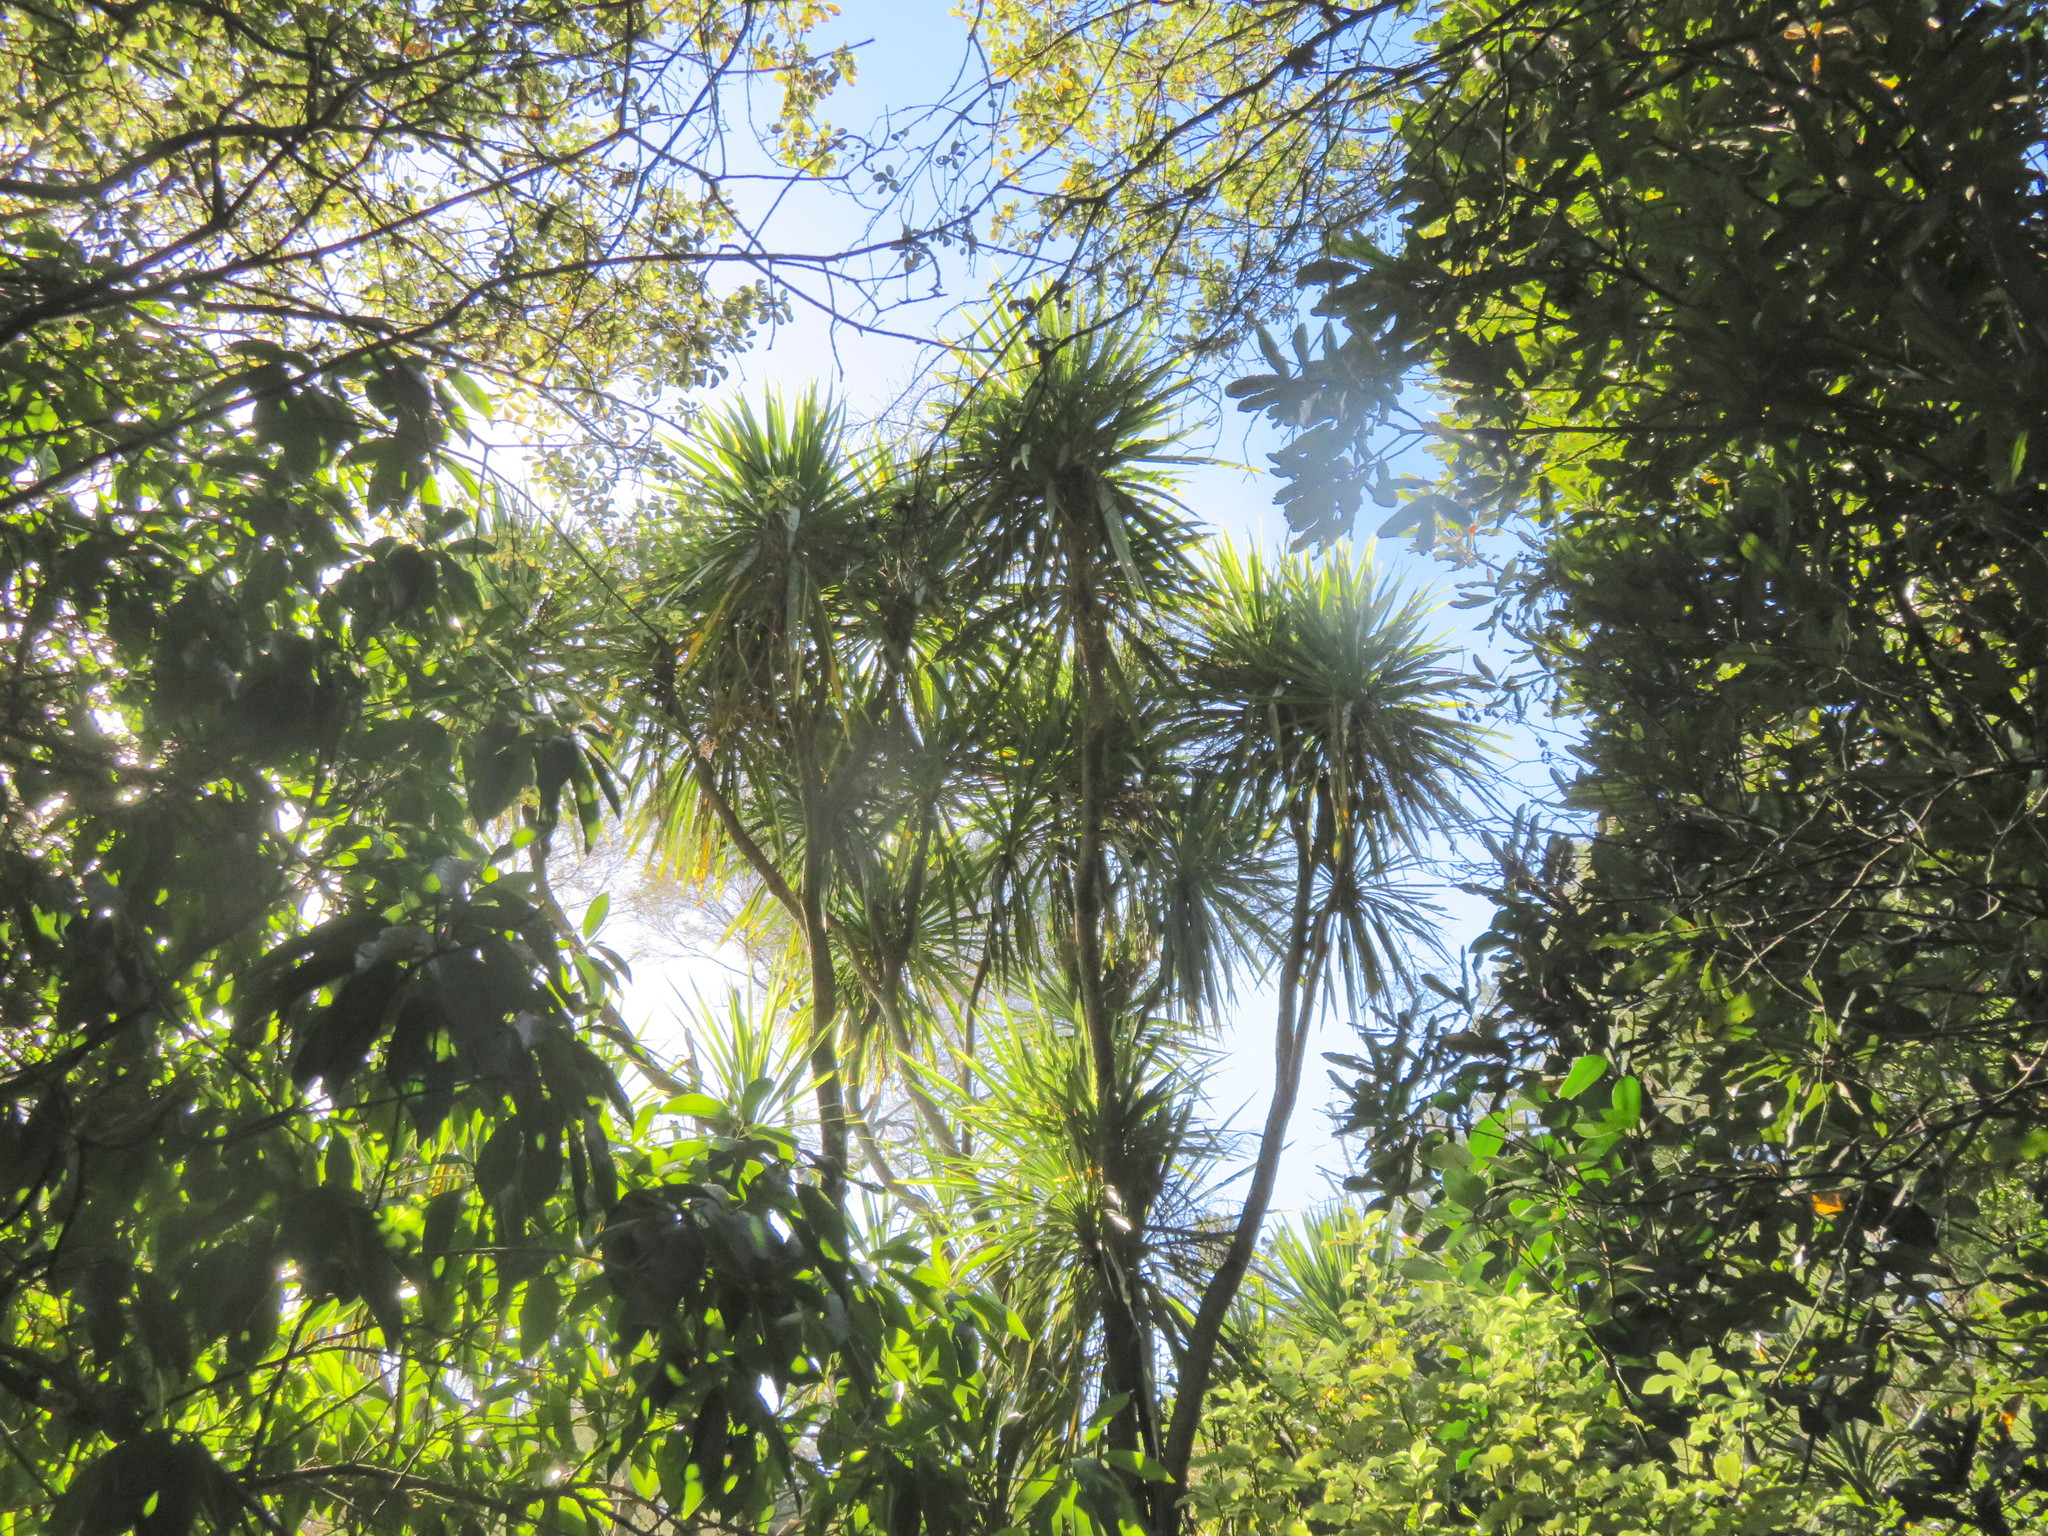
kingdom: Plantae
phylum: Tracheophyta
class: Magnoliopsida
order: Malpighiales
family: Violaceae
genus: Melicytus
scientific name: Melicytus ramiflorus
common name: Mahoe
